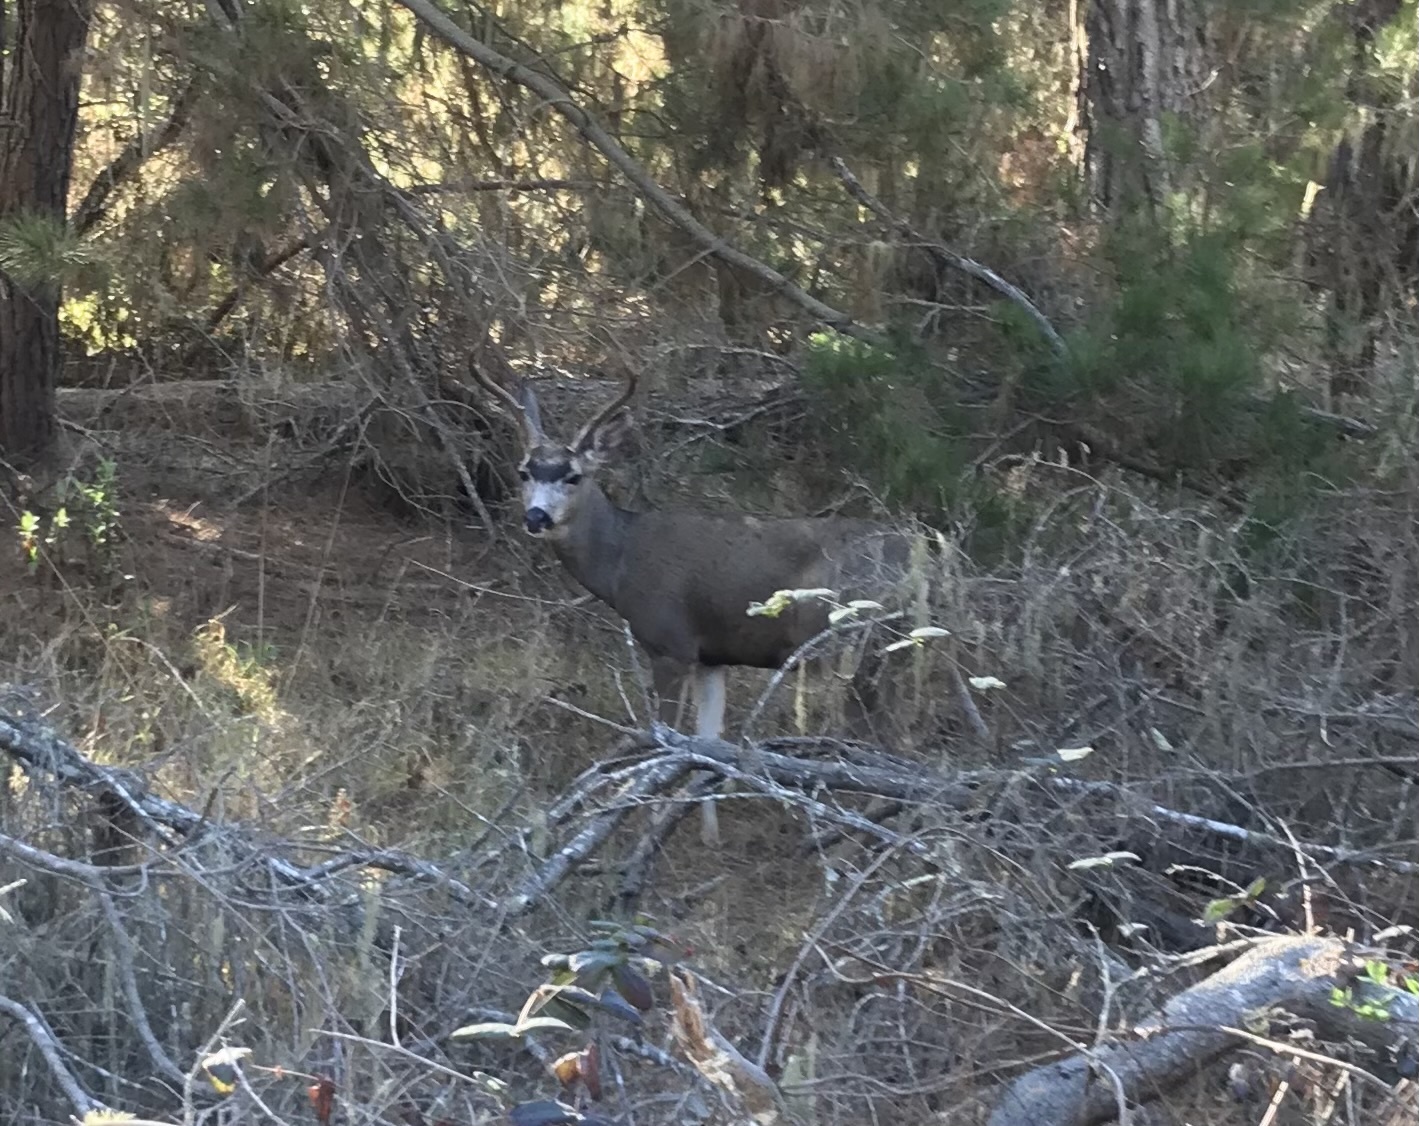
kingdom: Animalia
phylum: Chordata
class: Mammalia
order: Artiodactyla
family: Cervidae
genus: Odocoileus
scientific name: Odocoileus hemionus
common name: Mule deer
